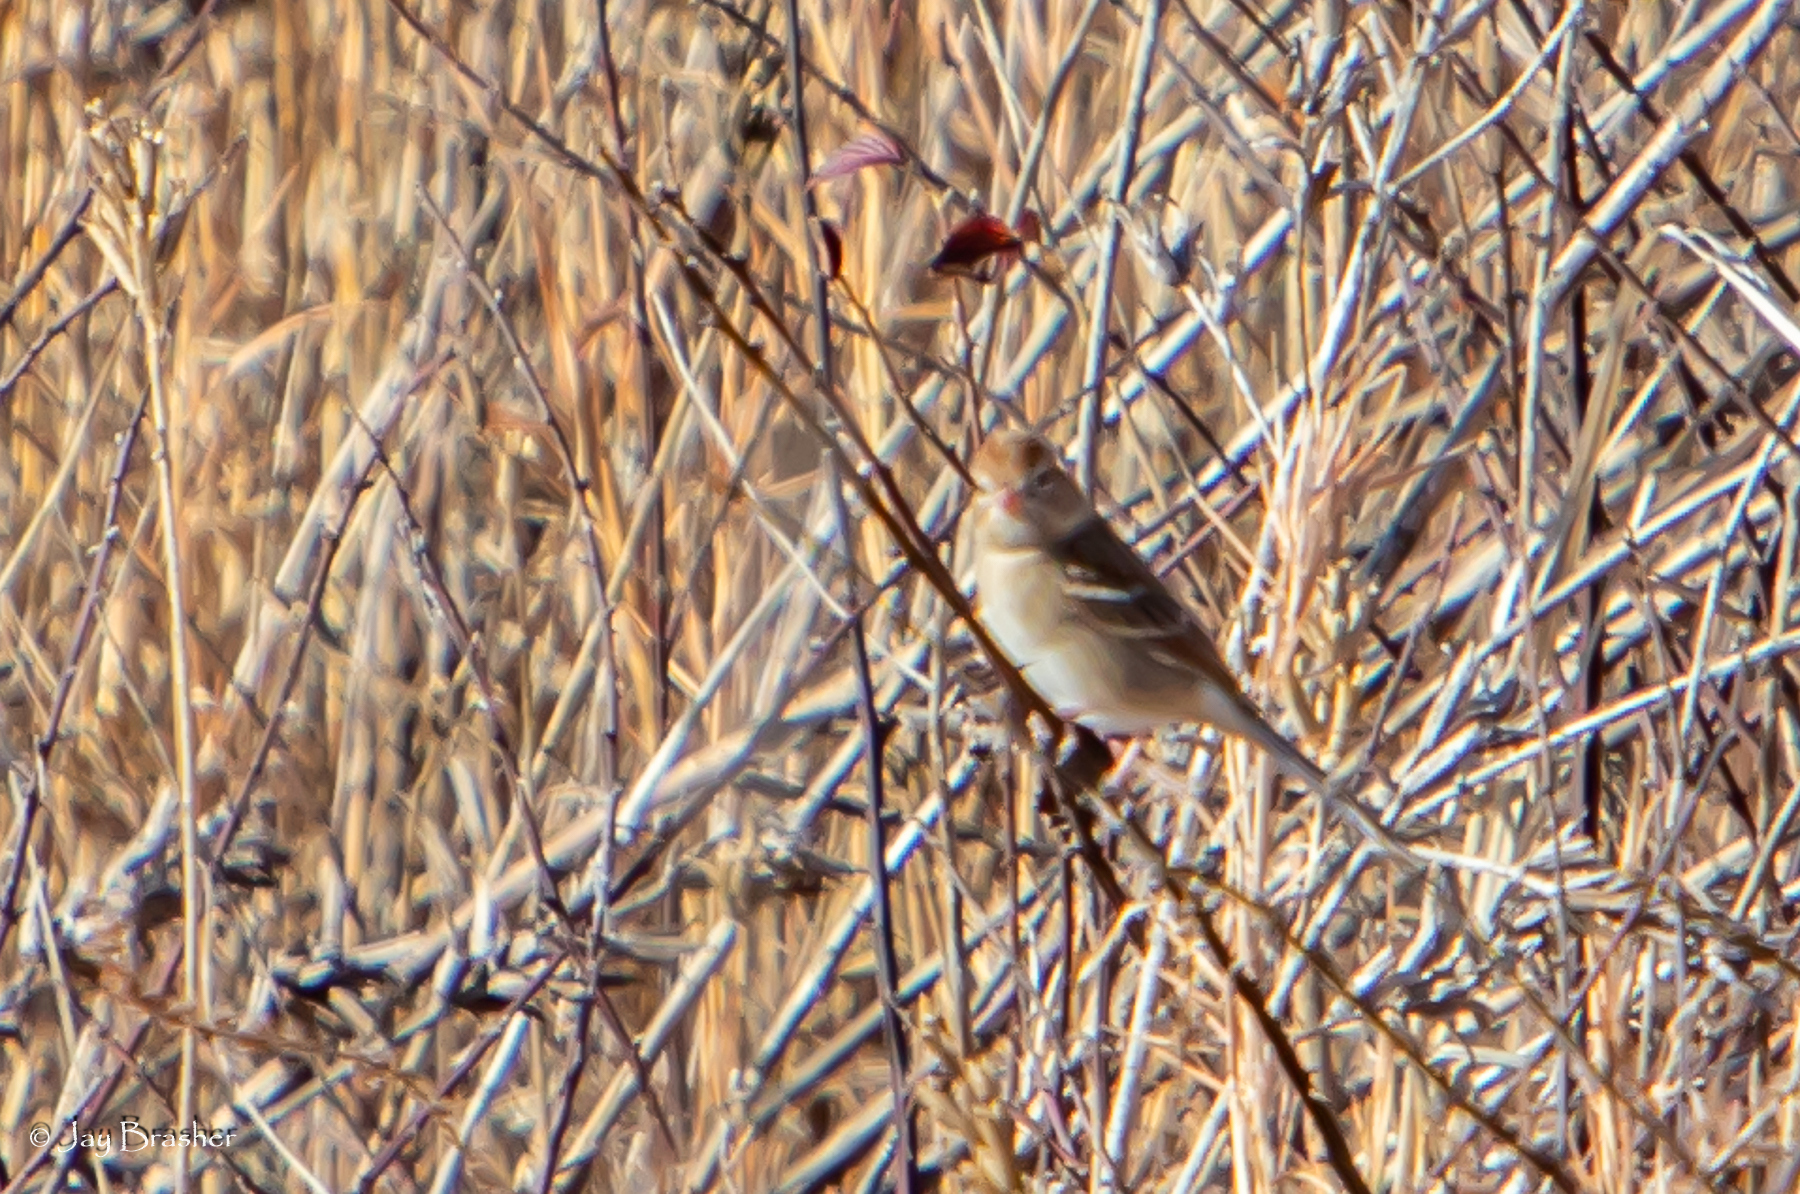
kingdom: Animalia
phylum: Chordata
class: Aves
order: Passeriformes
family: Passerellidae
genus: Spizella
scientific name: Spizella pusilla
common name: Field sparrow
